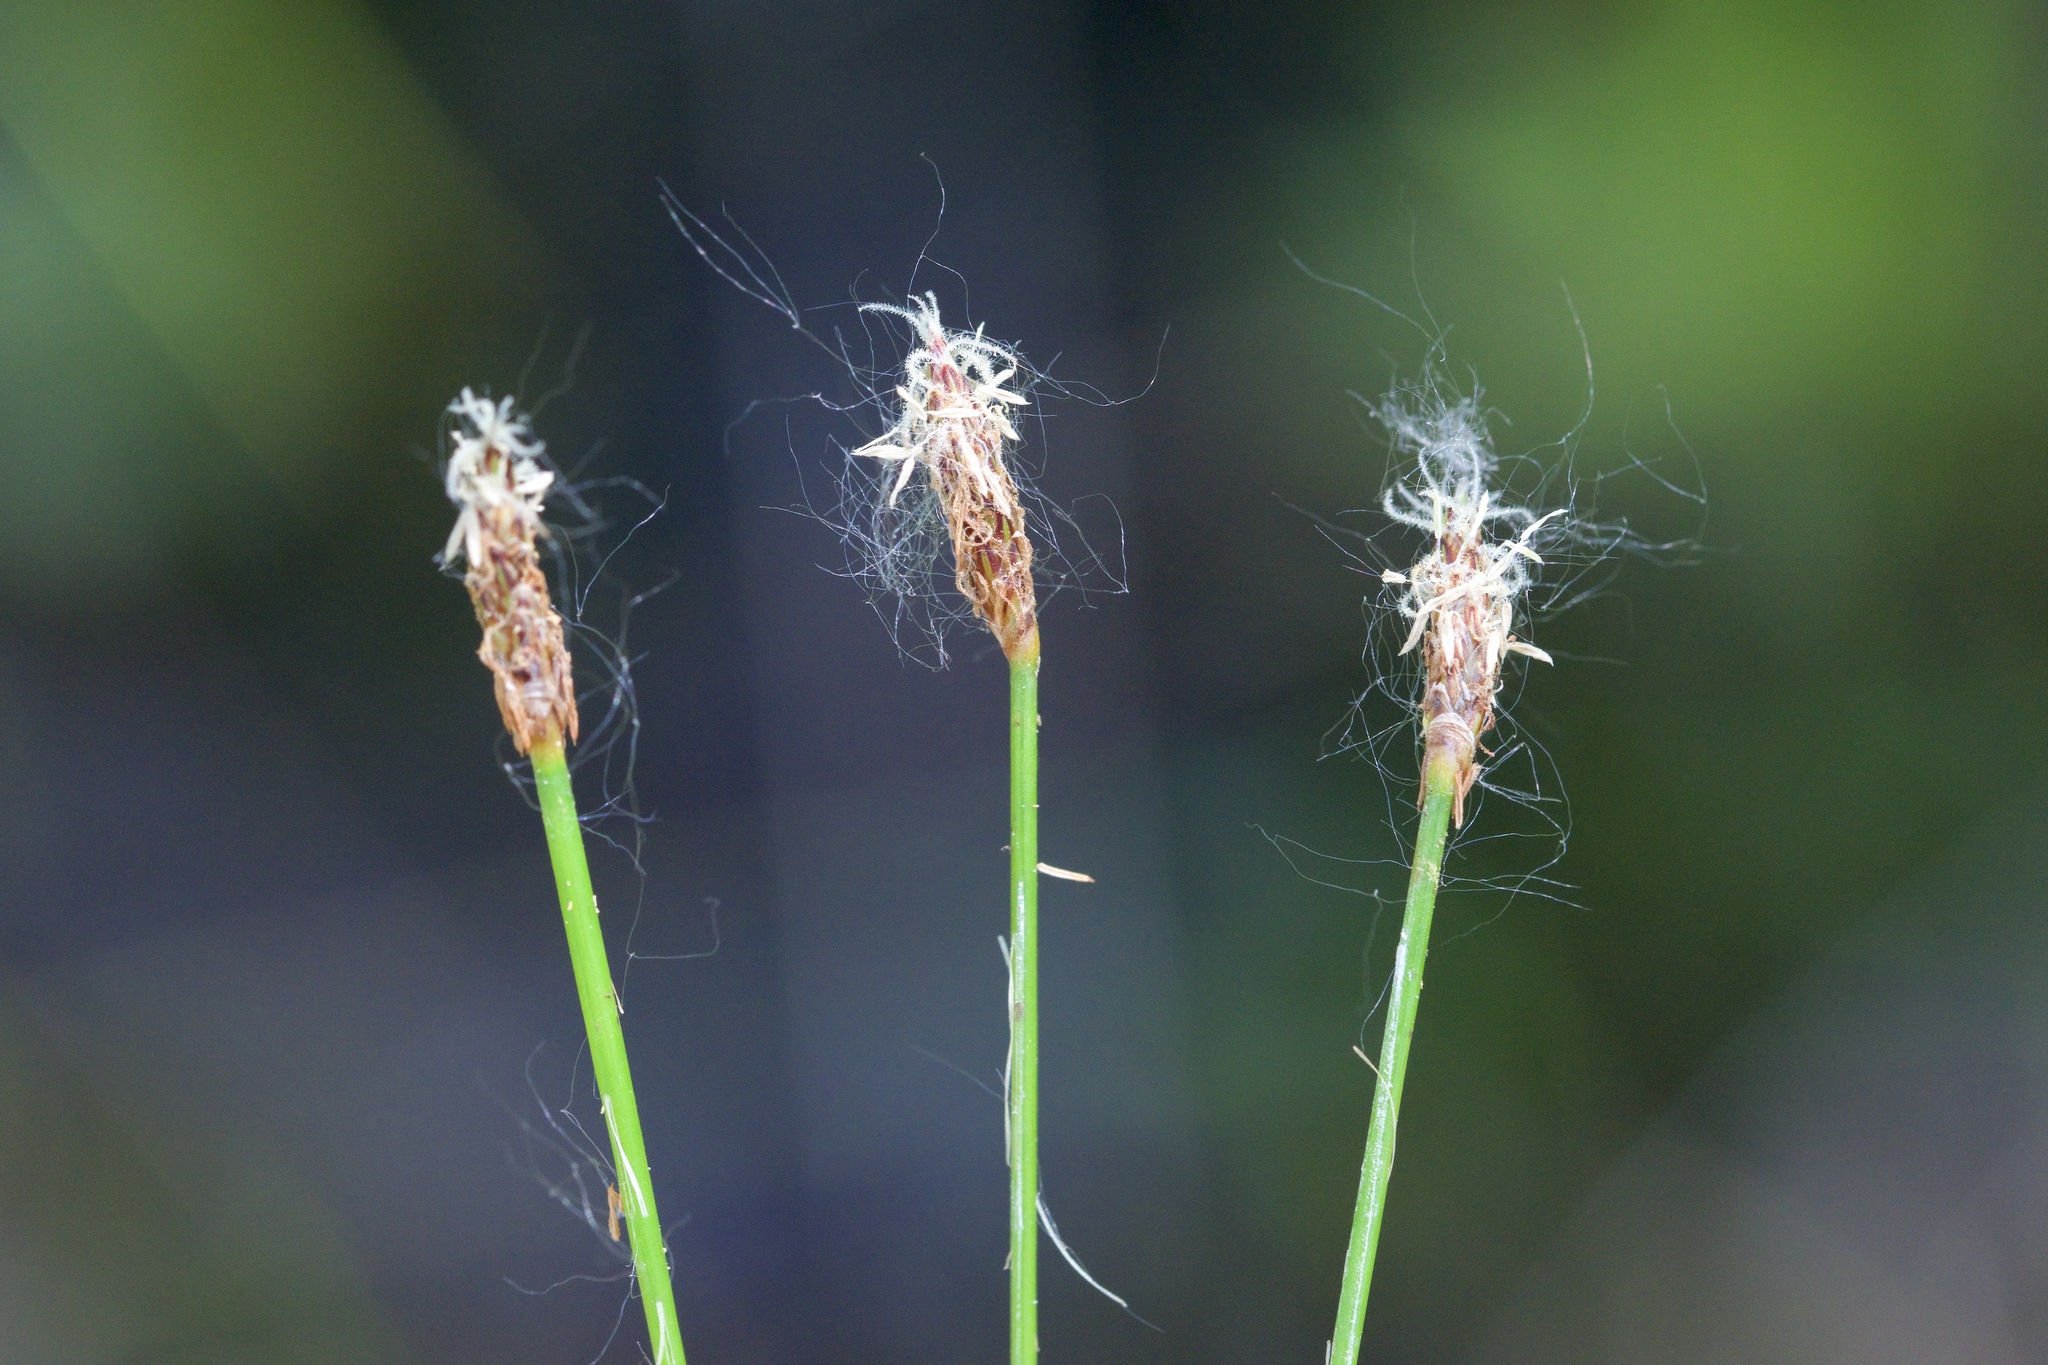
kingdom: Plantae
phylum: Tracheophyta
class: Liliopsida
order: Poales
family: Cyperaceae
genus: Eleocharis
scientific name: Eleocharis palustris
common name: Common spike-rush
